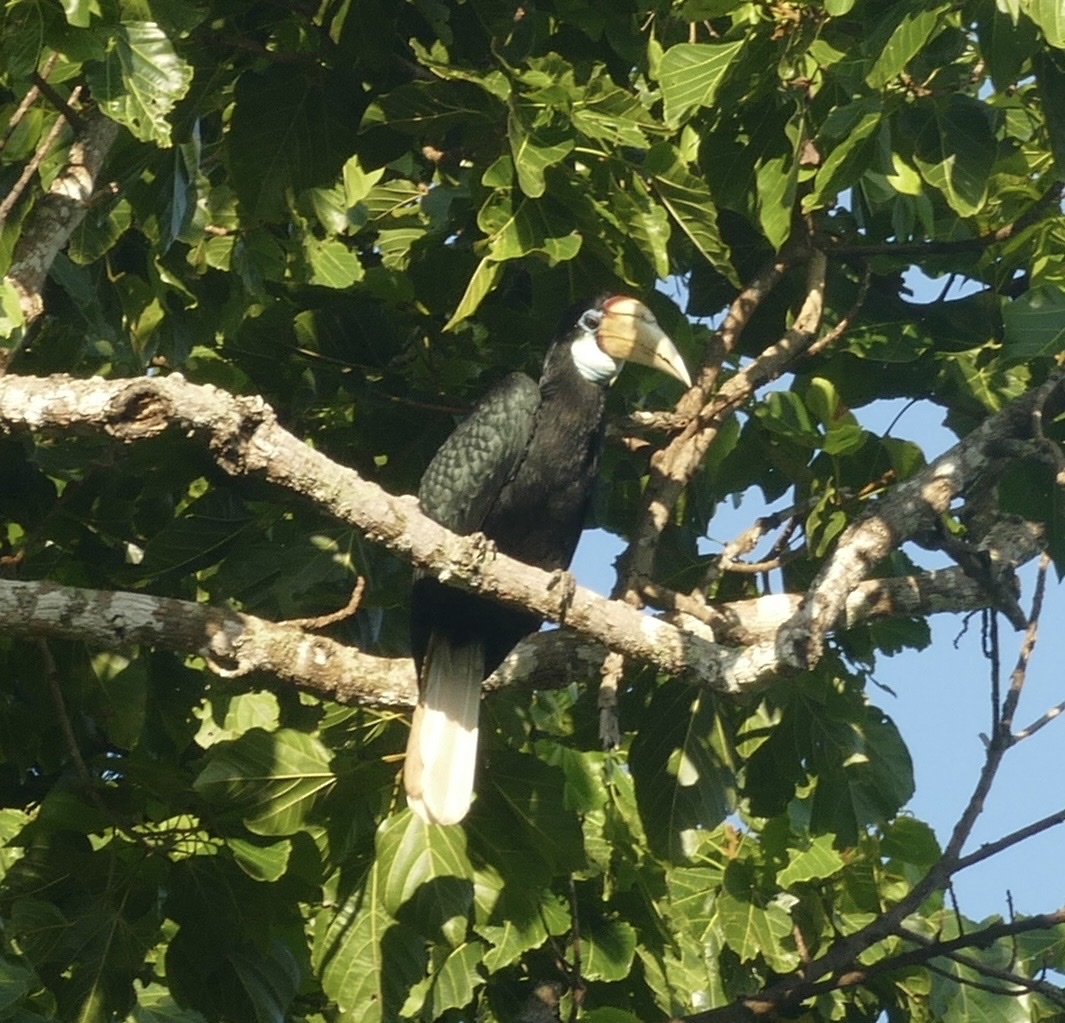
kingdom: Animalia
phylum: Chordata
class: Aves
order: Bucerotiformes
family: Bucerotidae
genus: Rhyticeros
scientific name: Rhyticeros plicatus
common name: Blyth's hornbill
